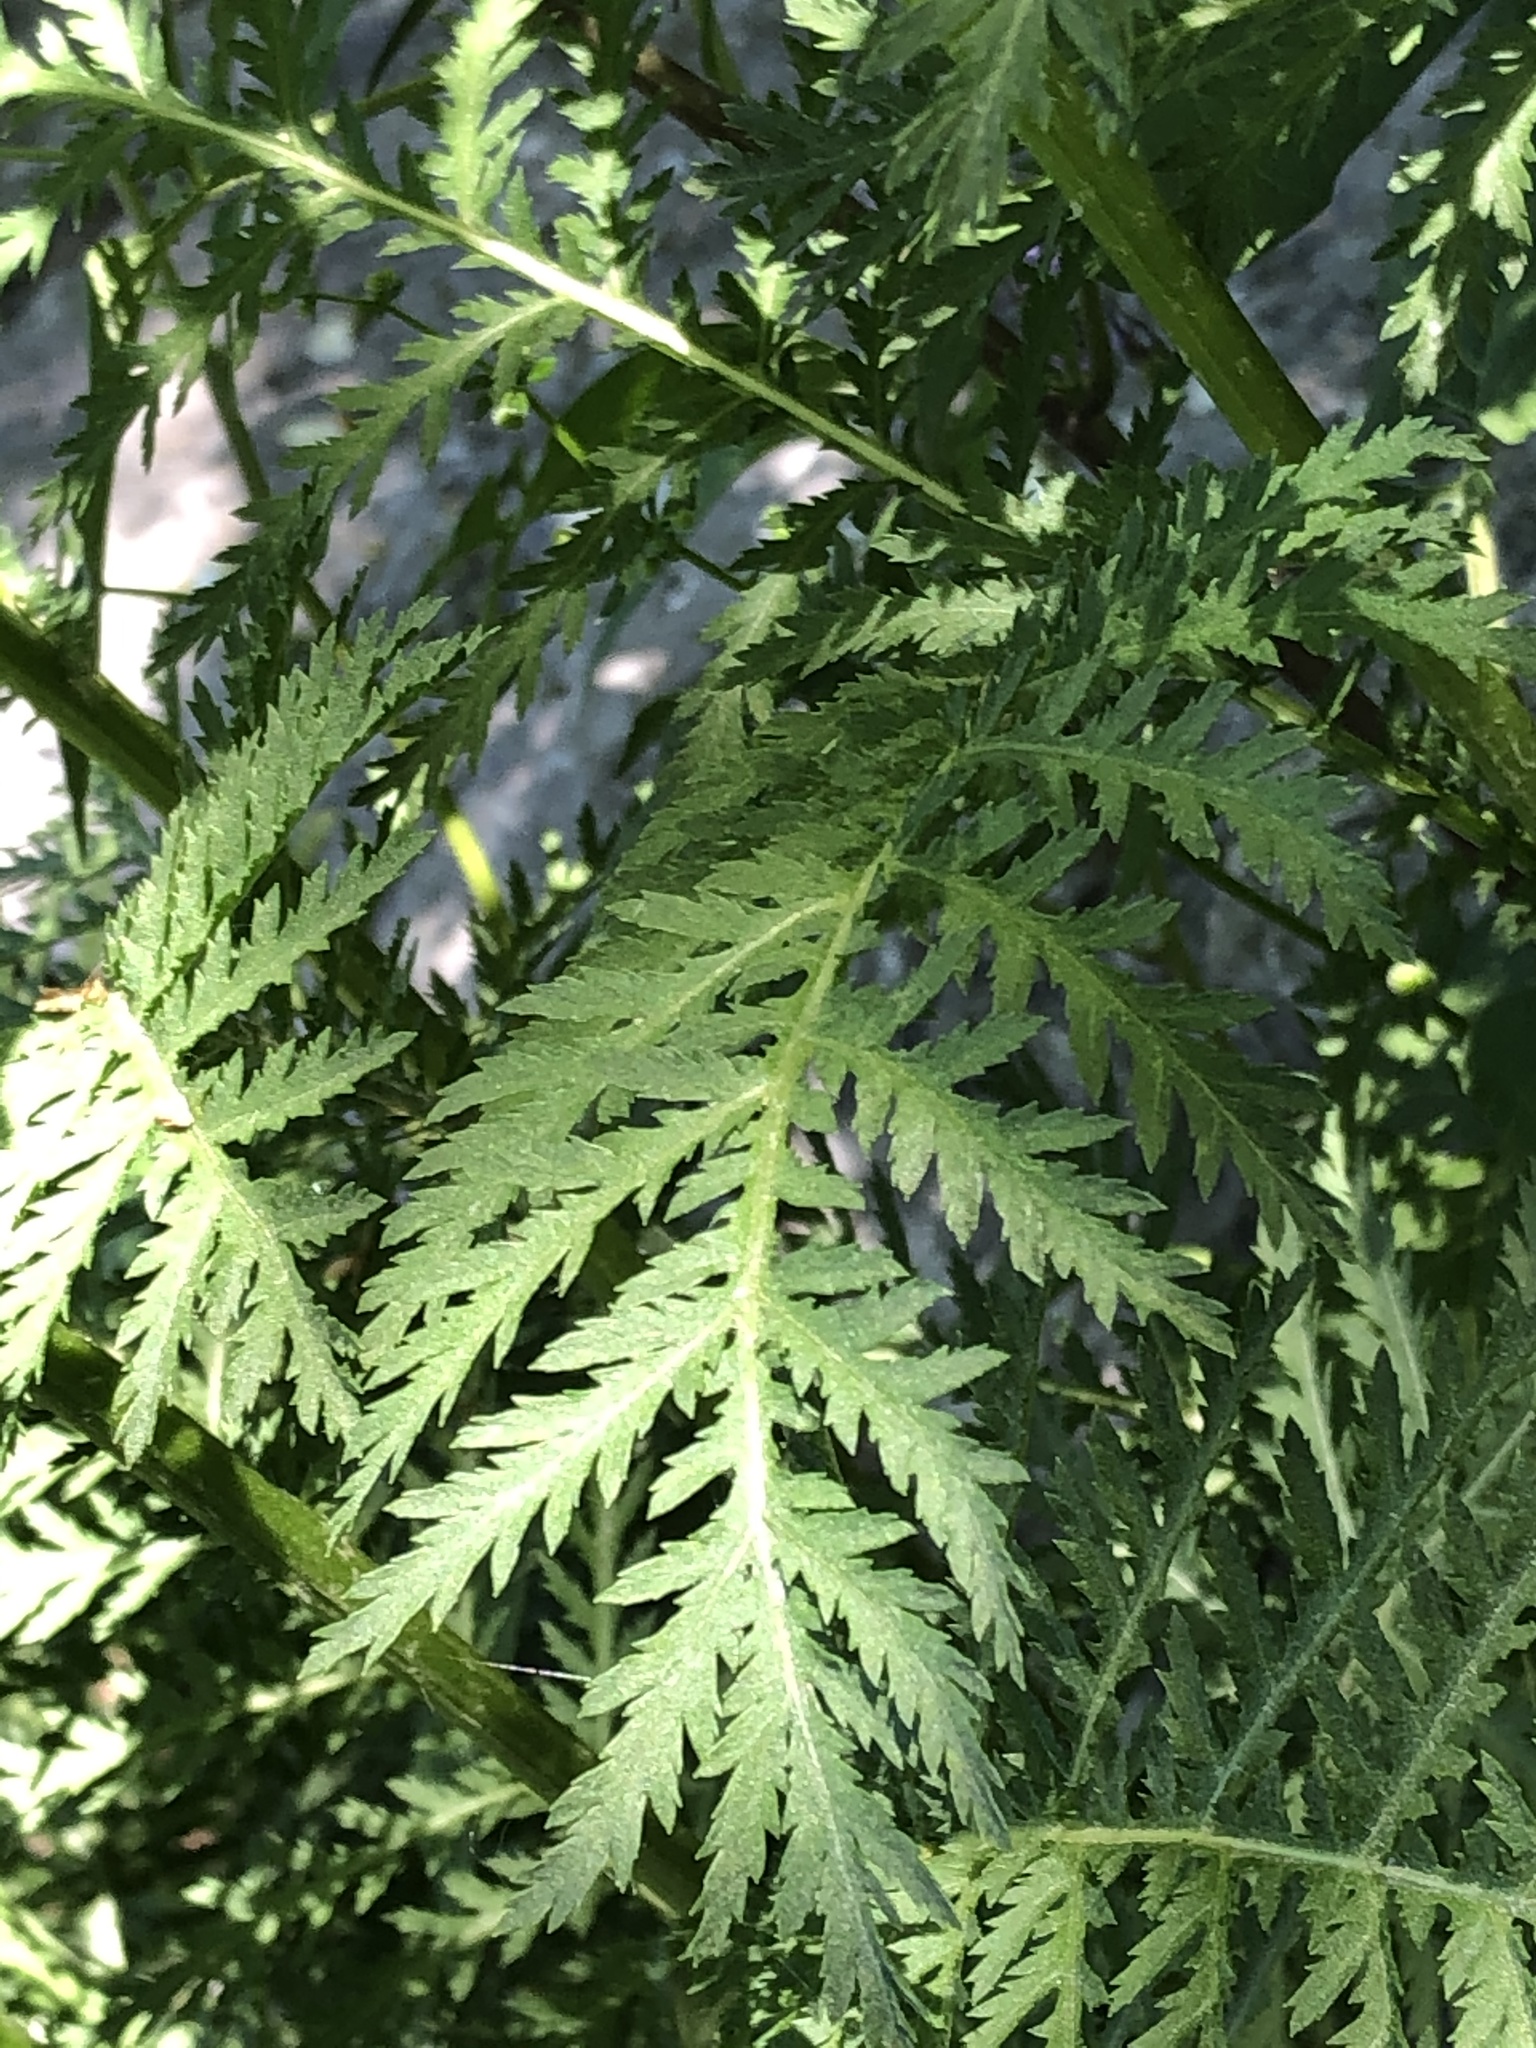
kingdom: Plantae
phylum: Tracheophyta
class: Magnoliopsida
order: Asterales
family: Asteraceae
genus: Tanacetum
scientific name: Tanacetum vulgare
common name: Common tansy
